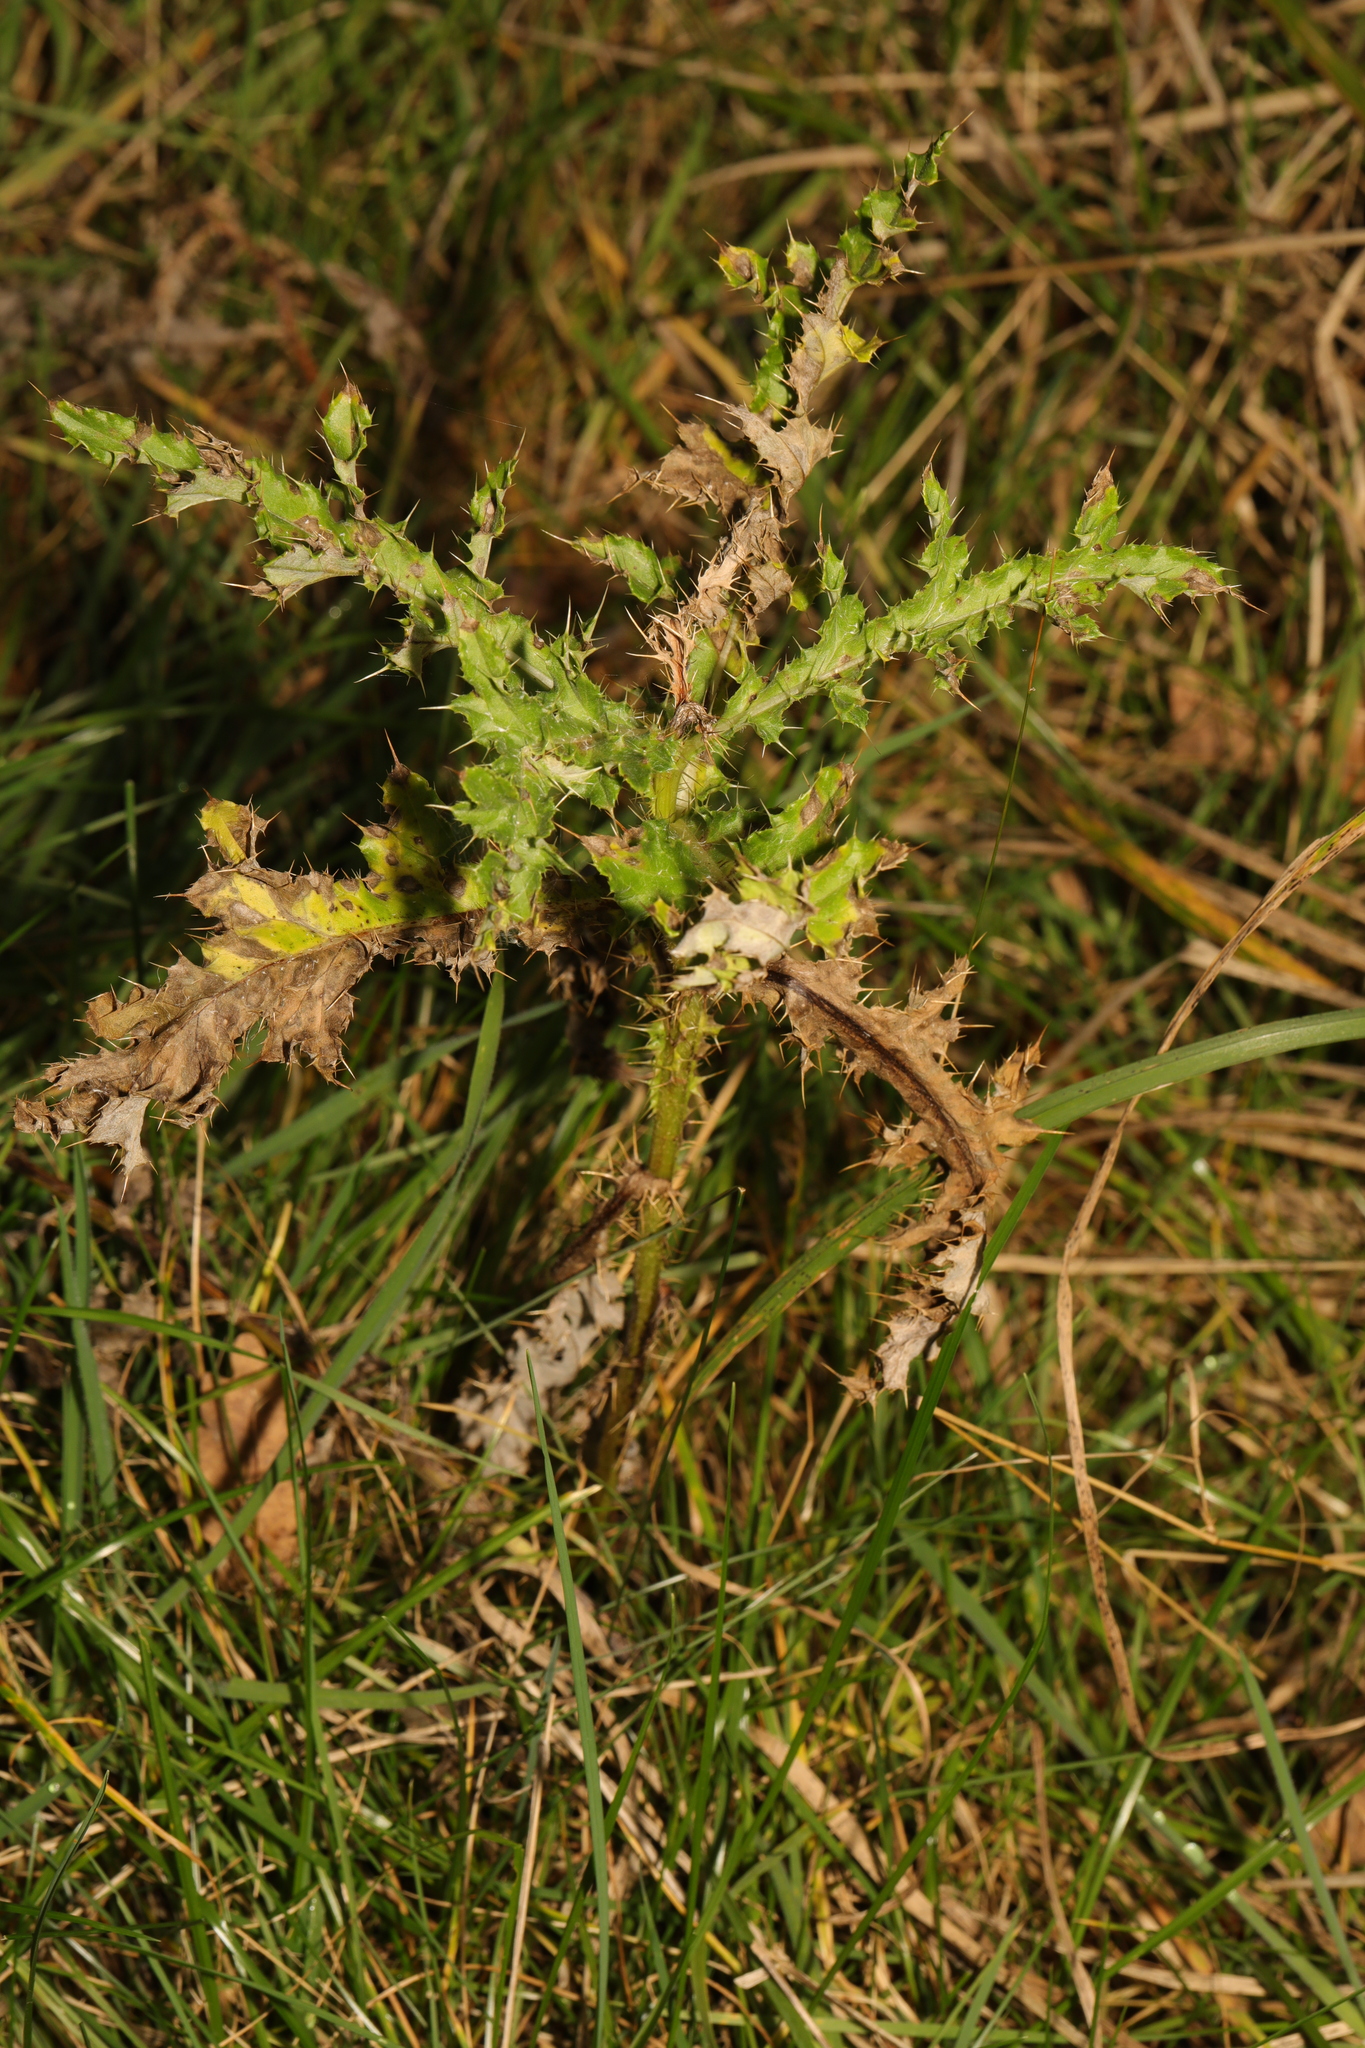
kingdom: Plantae
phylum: Tracheophyta
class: Magnoliopsida
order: Asterales
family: Asteraceae
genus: Cirsium
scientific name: Cirsium arvense
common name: Creeping thistle
